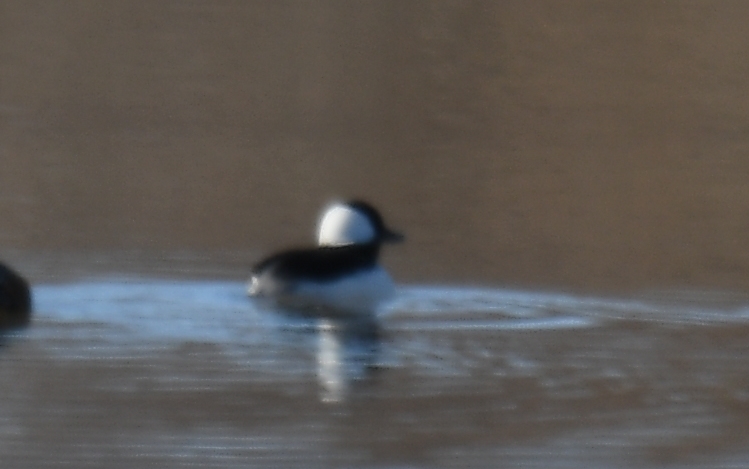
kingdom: Animalia
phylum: Chordata
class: Aves
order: Anseriformes
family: Anatidae
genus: Bucephala
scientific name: Bucephala albeola
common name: Bufflehead
